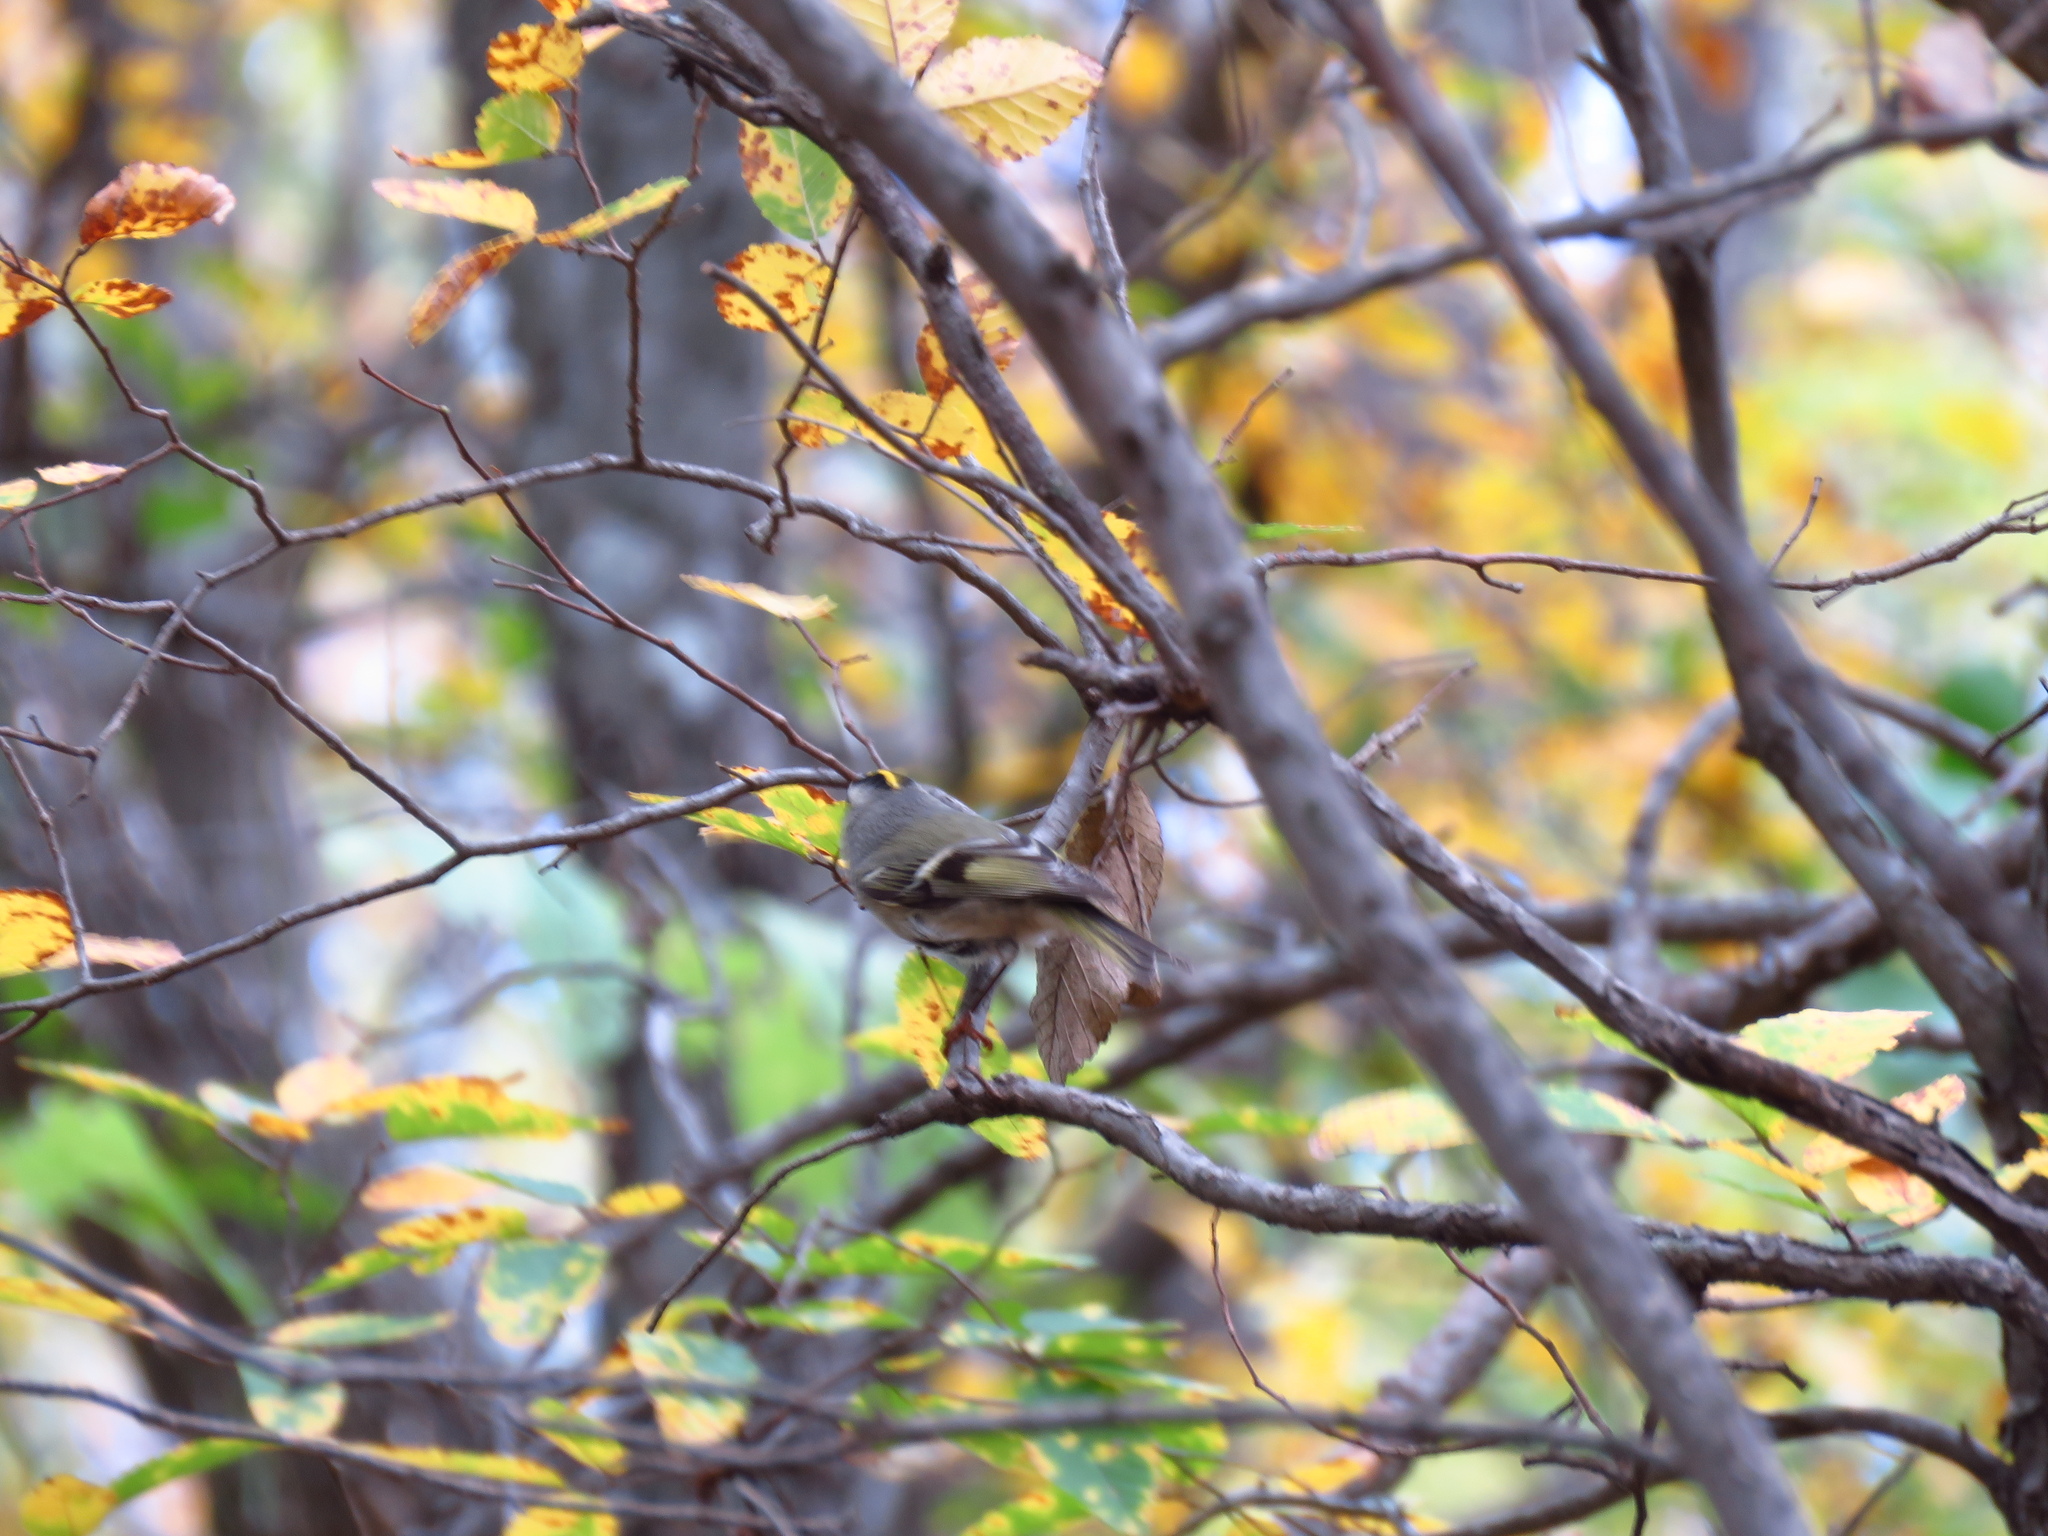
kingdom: Animalia
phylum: Chordata
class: Aves
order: Passeriformes
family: Regulidae
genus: Regulus
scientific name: Regulus satrapa
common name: Golden-crowned kinglet
